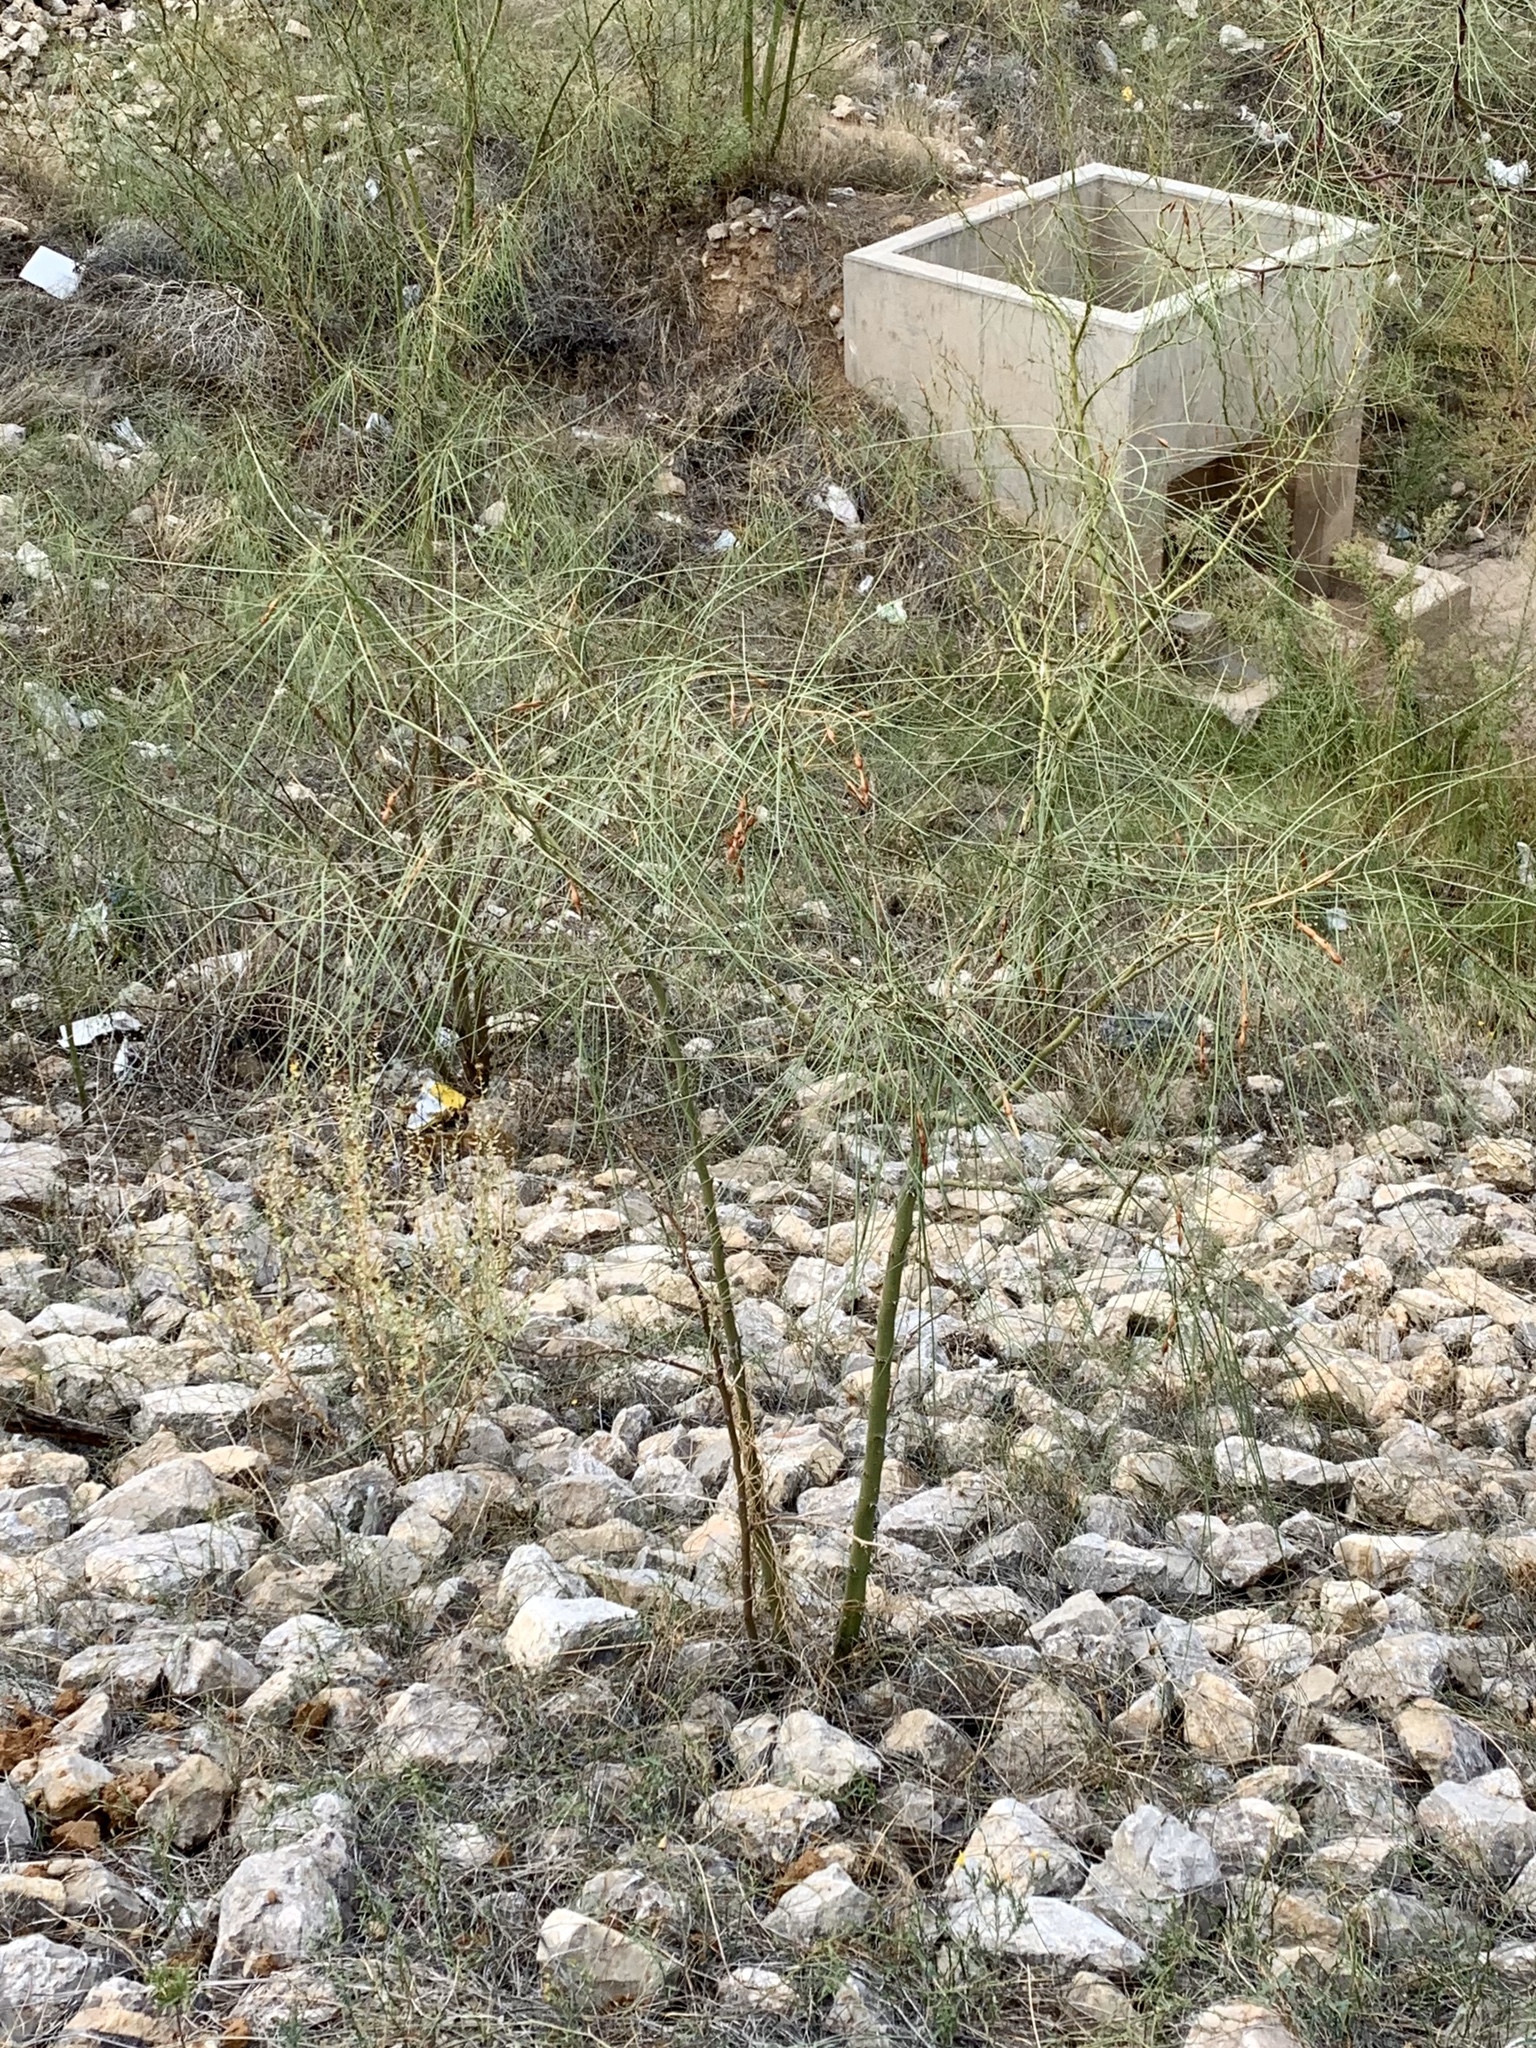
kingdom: Plantae
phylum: Tracheophyta
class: Magnoliopsida
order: Fabales
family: Fabaceae
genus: Parkinsonia
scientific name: Parkinsonia aculeata
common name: Jerusalem thorn
